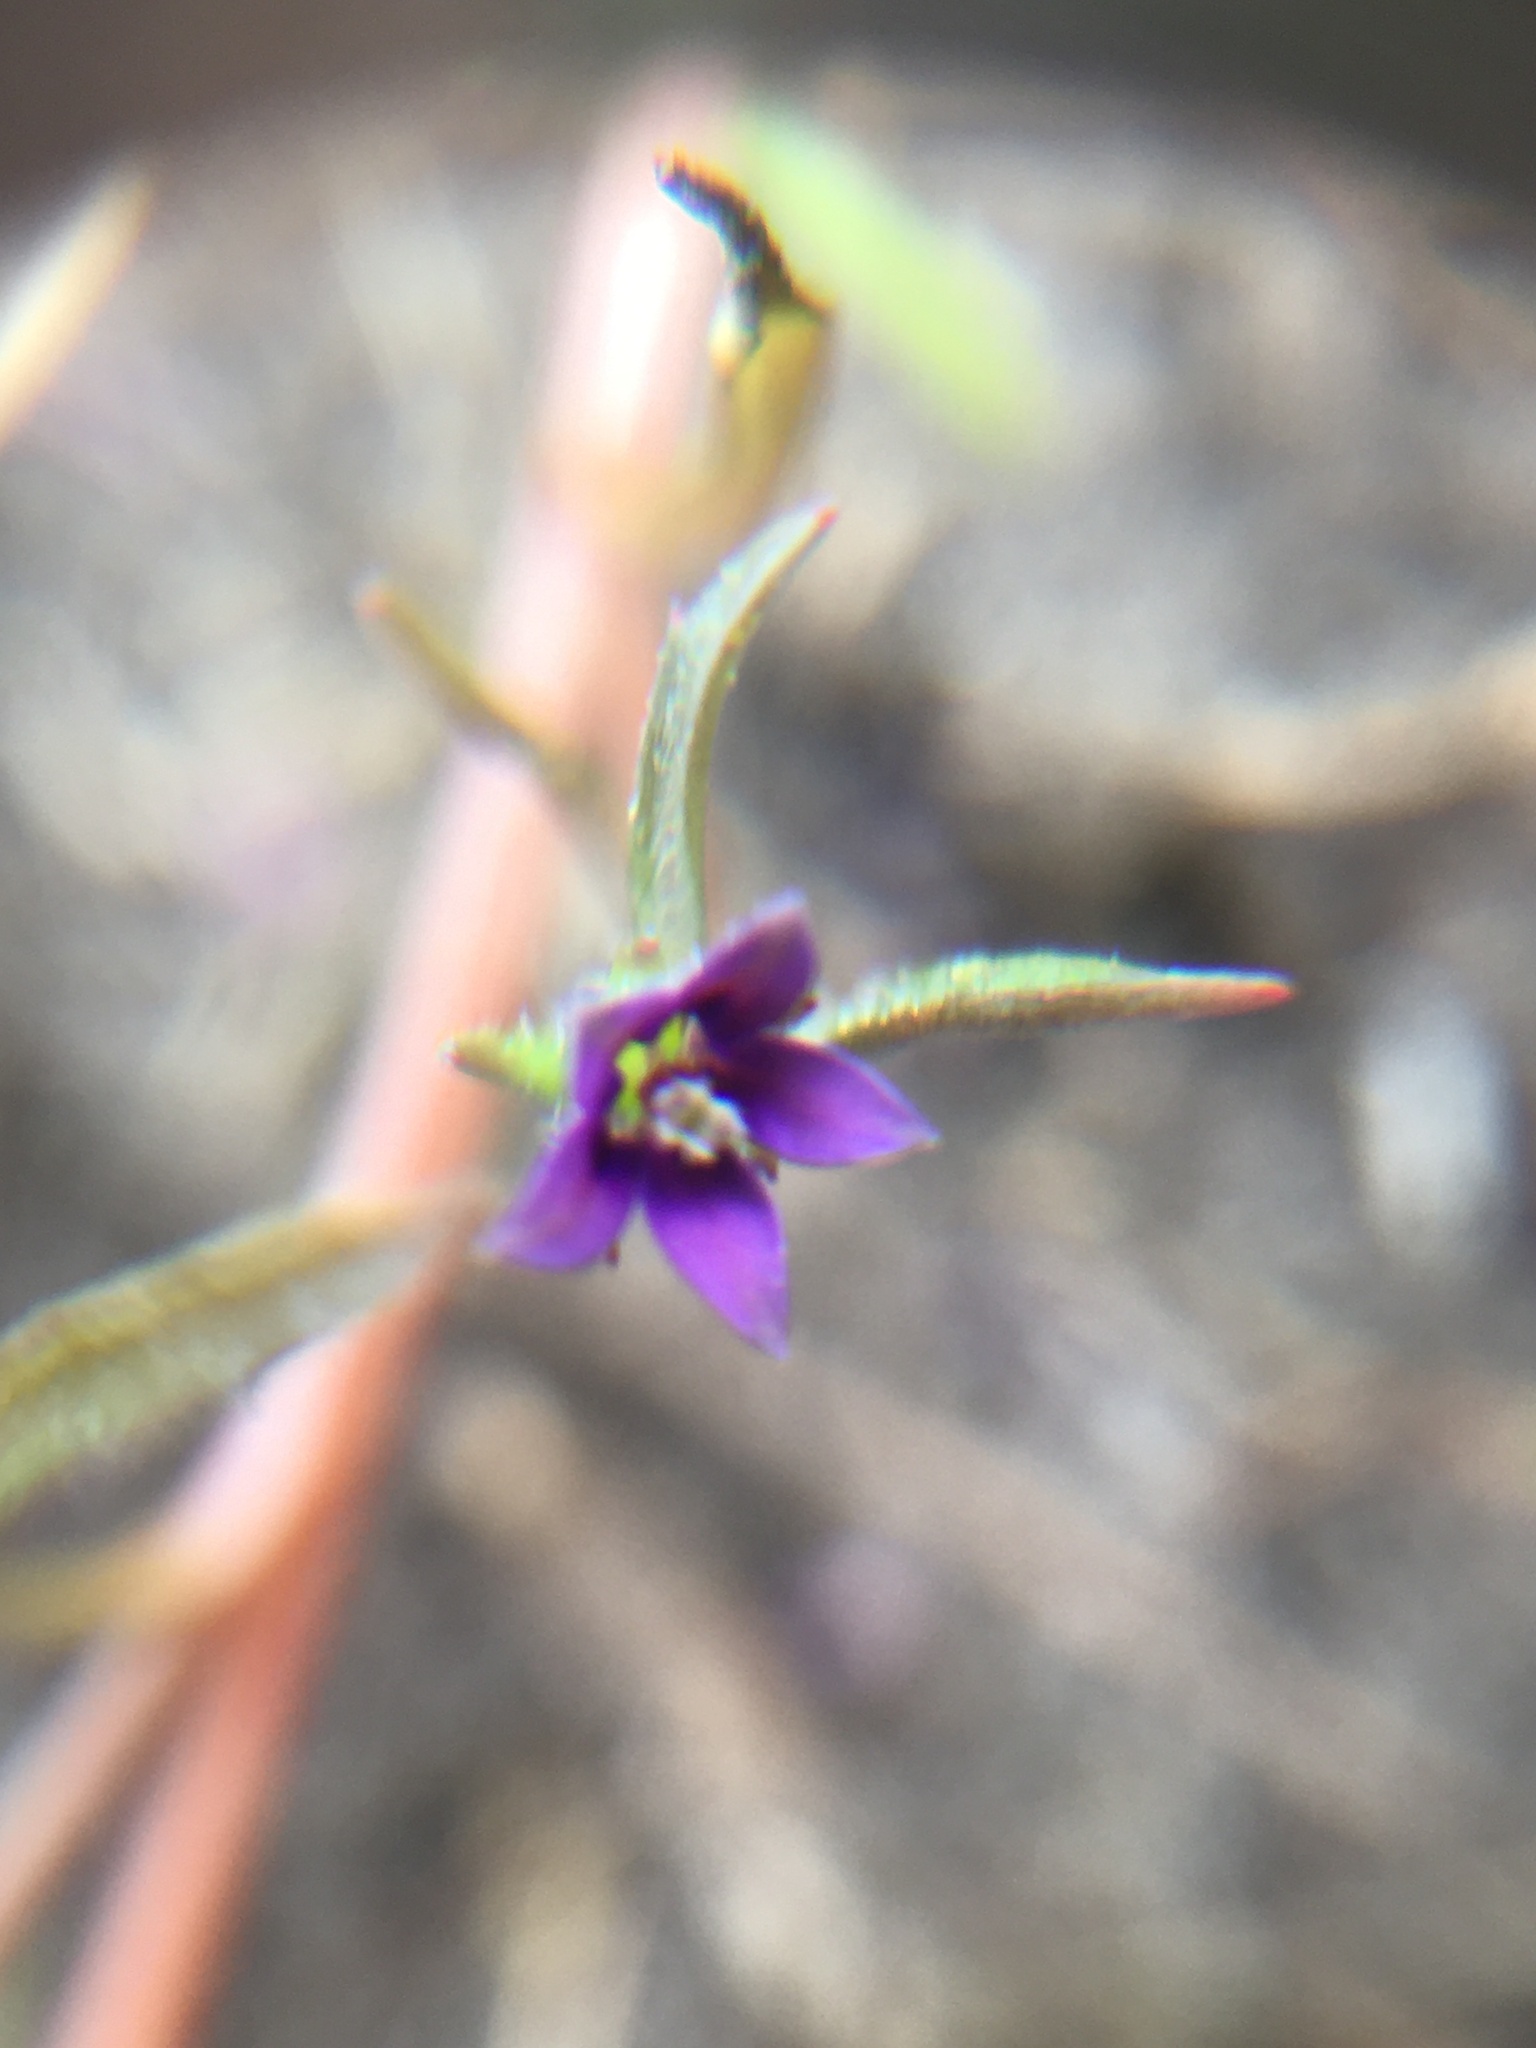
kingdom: Plantae
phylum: Tracheophyta
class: Magnoliopsida
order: Asterales
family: Campanulaceae
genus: Monopsis
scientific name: Monopsis debilis
